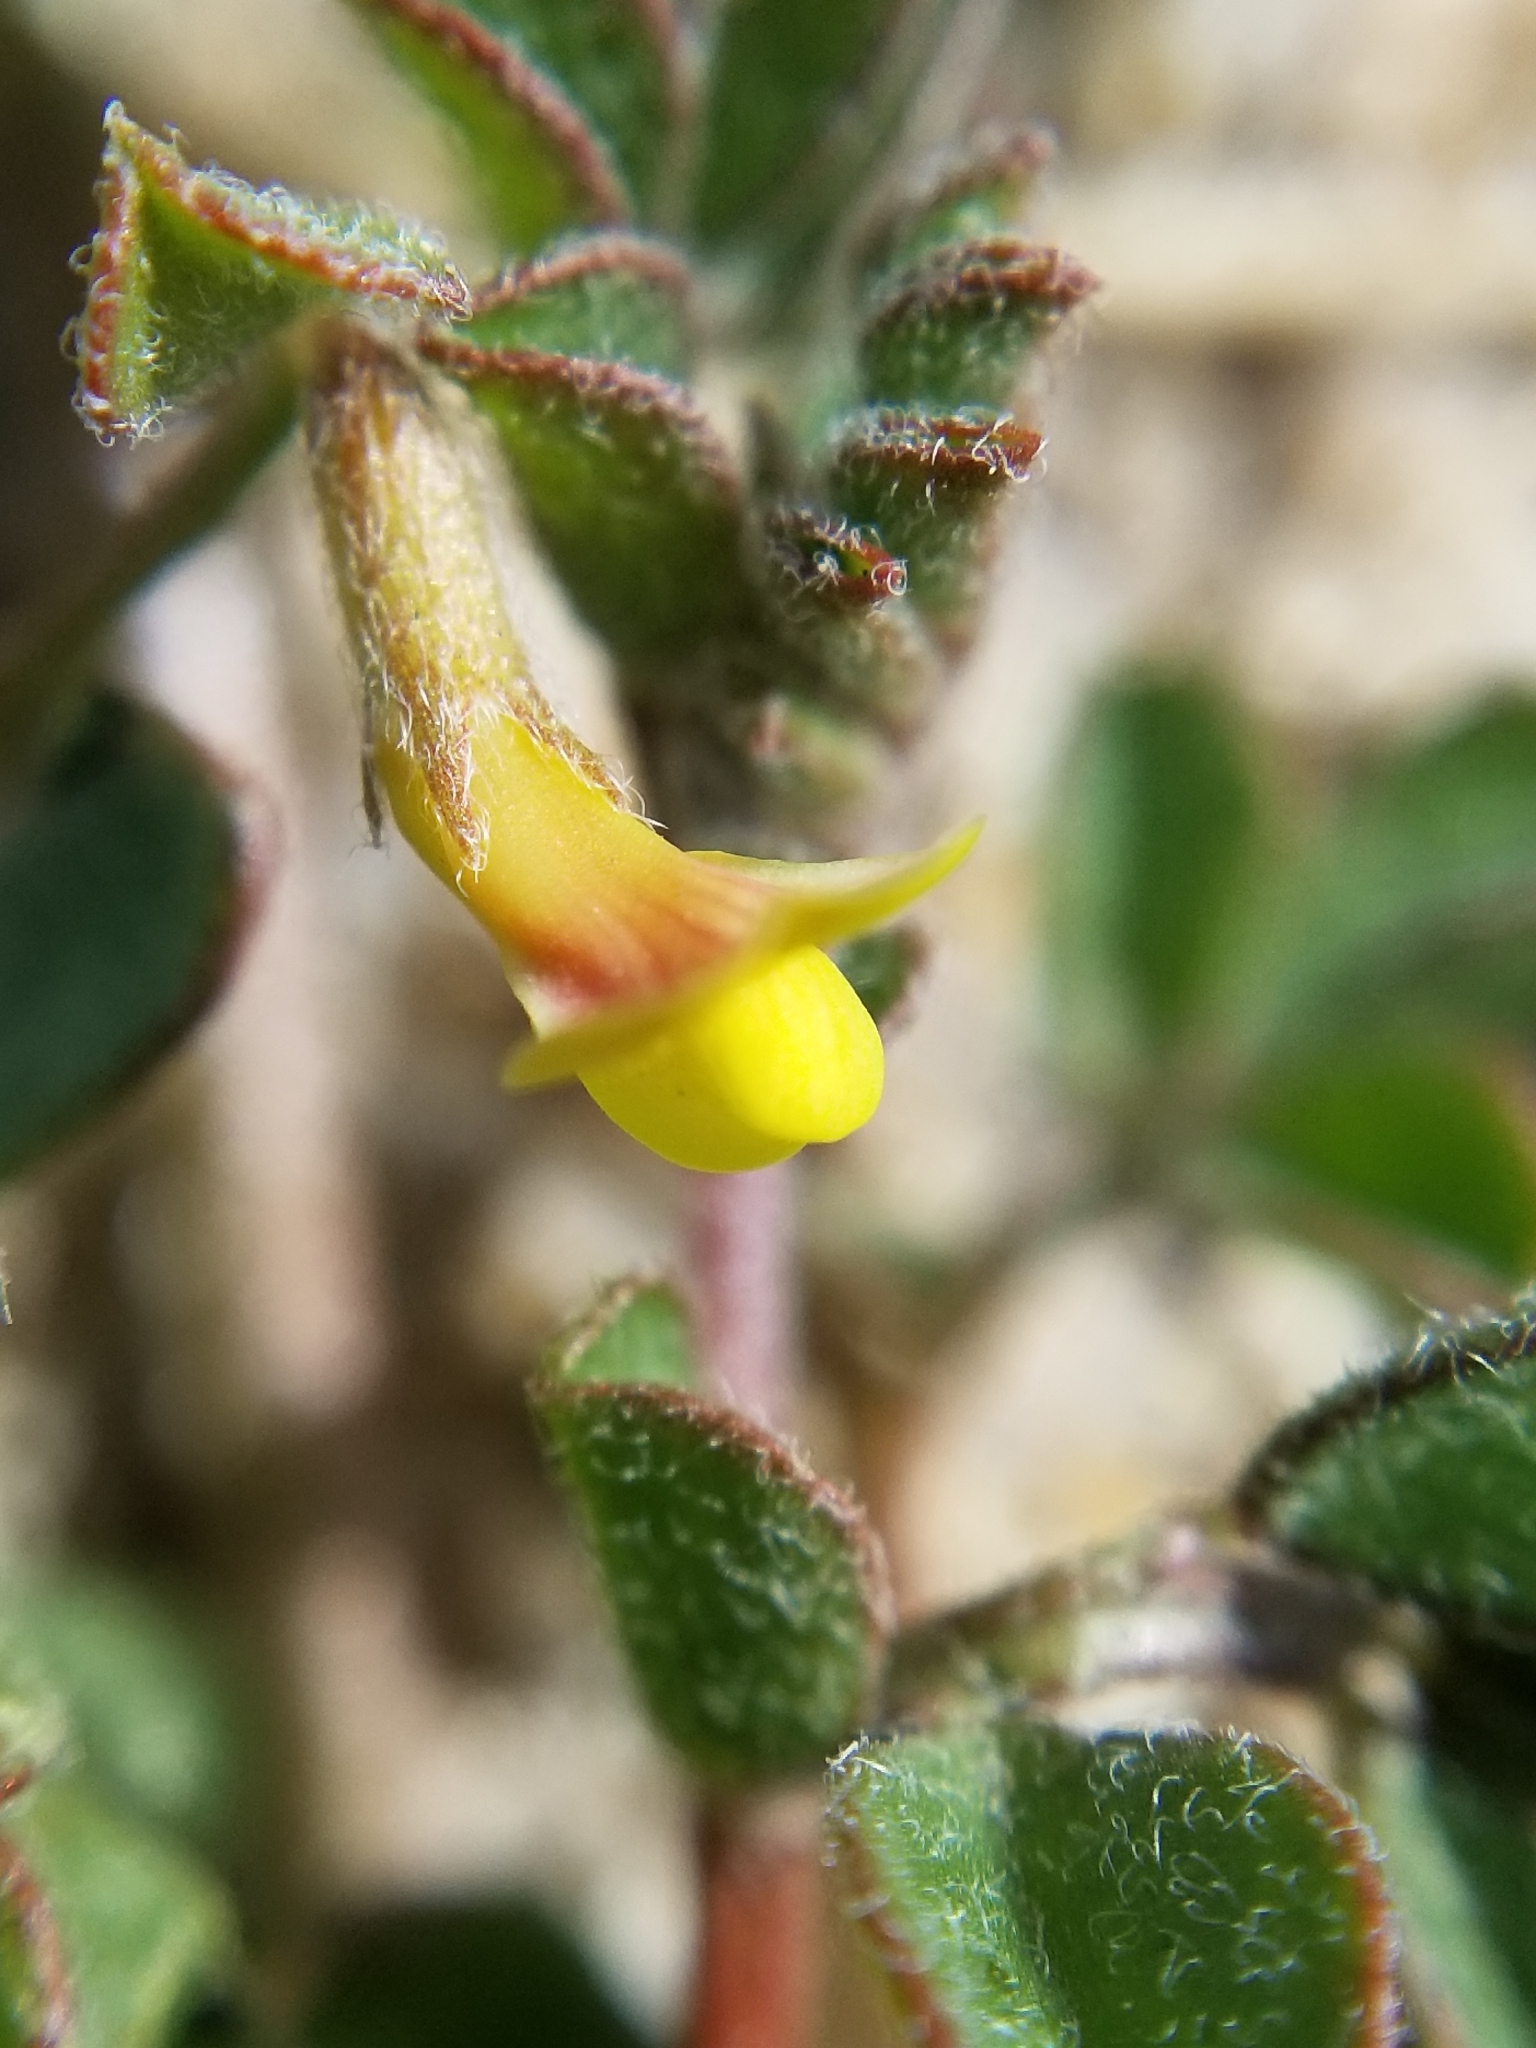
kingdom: Plantae
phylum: Tracheophyta
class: Magnoliopsida
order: Fabales
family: Fabaceae
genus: Acmispon
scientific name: Acmispon strigosus
